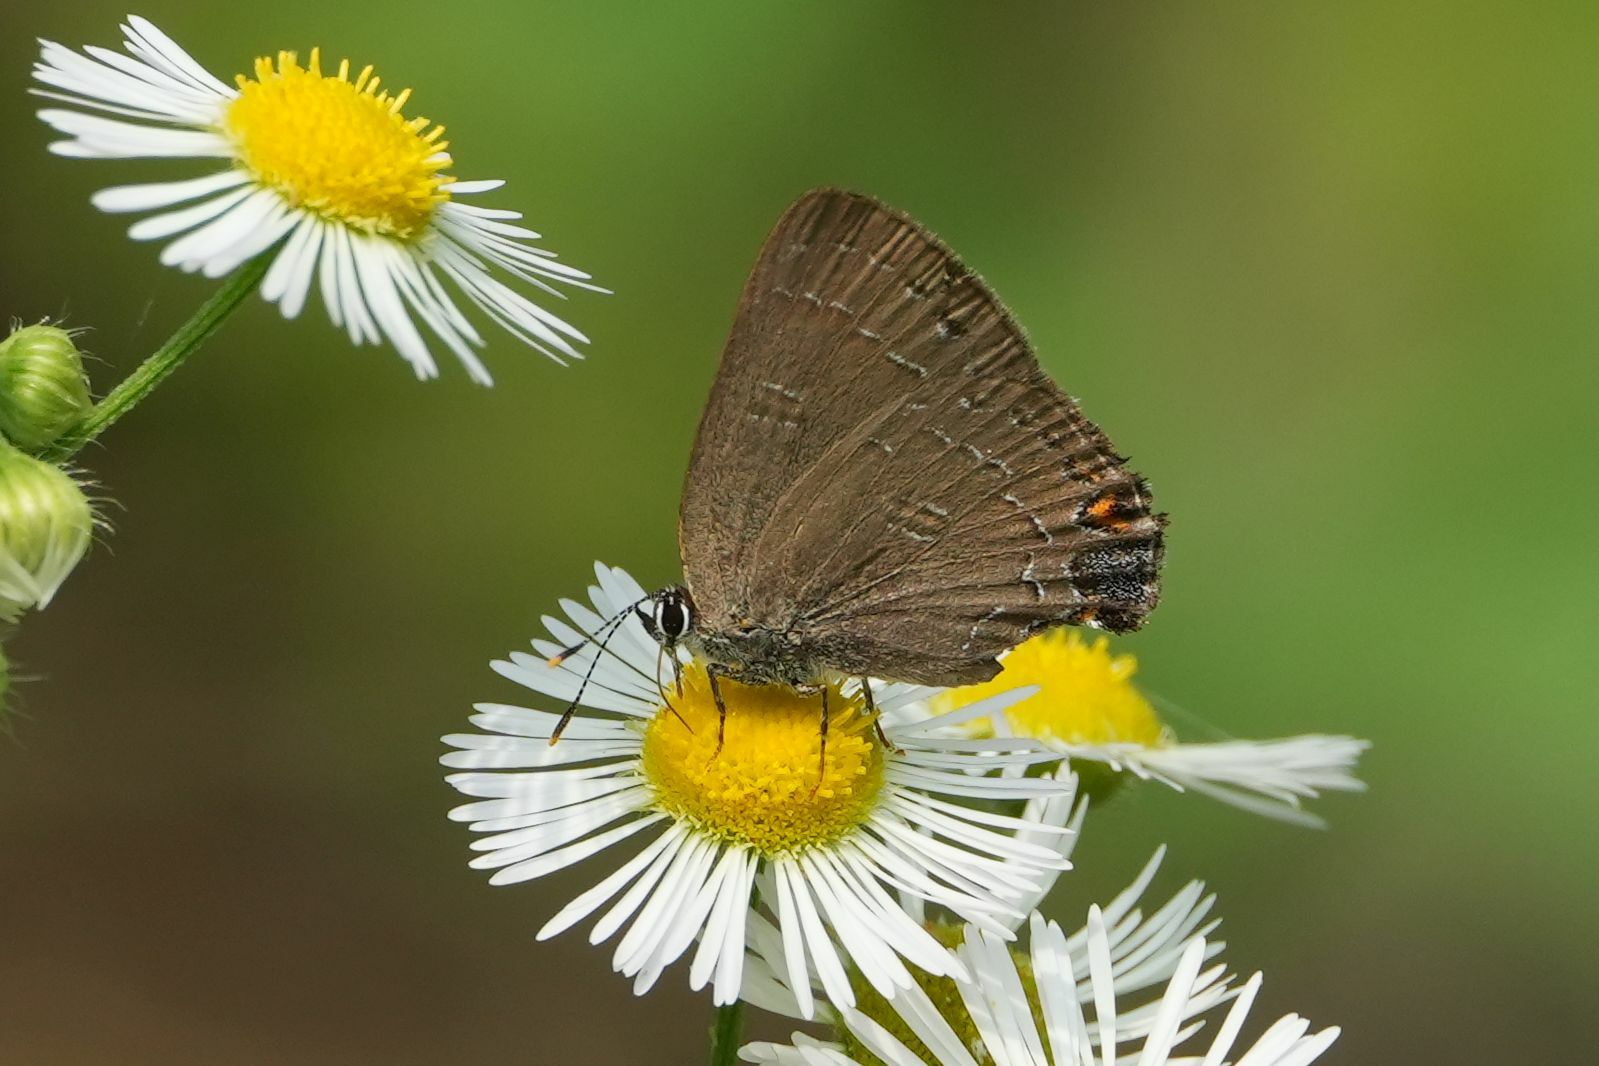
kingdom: Animalia
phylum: Arthropoda
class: Insecta
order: Lepidoptera
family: Lycaenidae
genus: Satyrium
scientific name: Satyrium calanus
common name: Banded hairstreak
